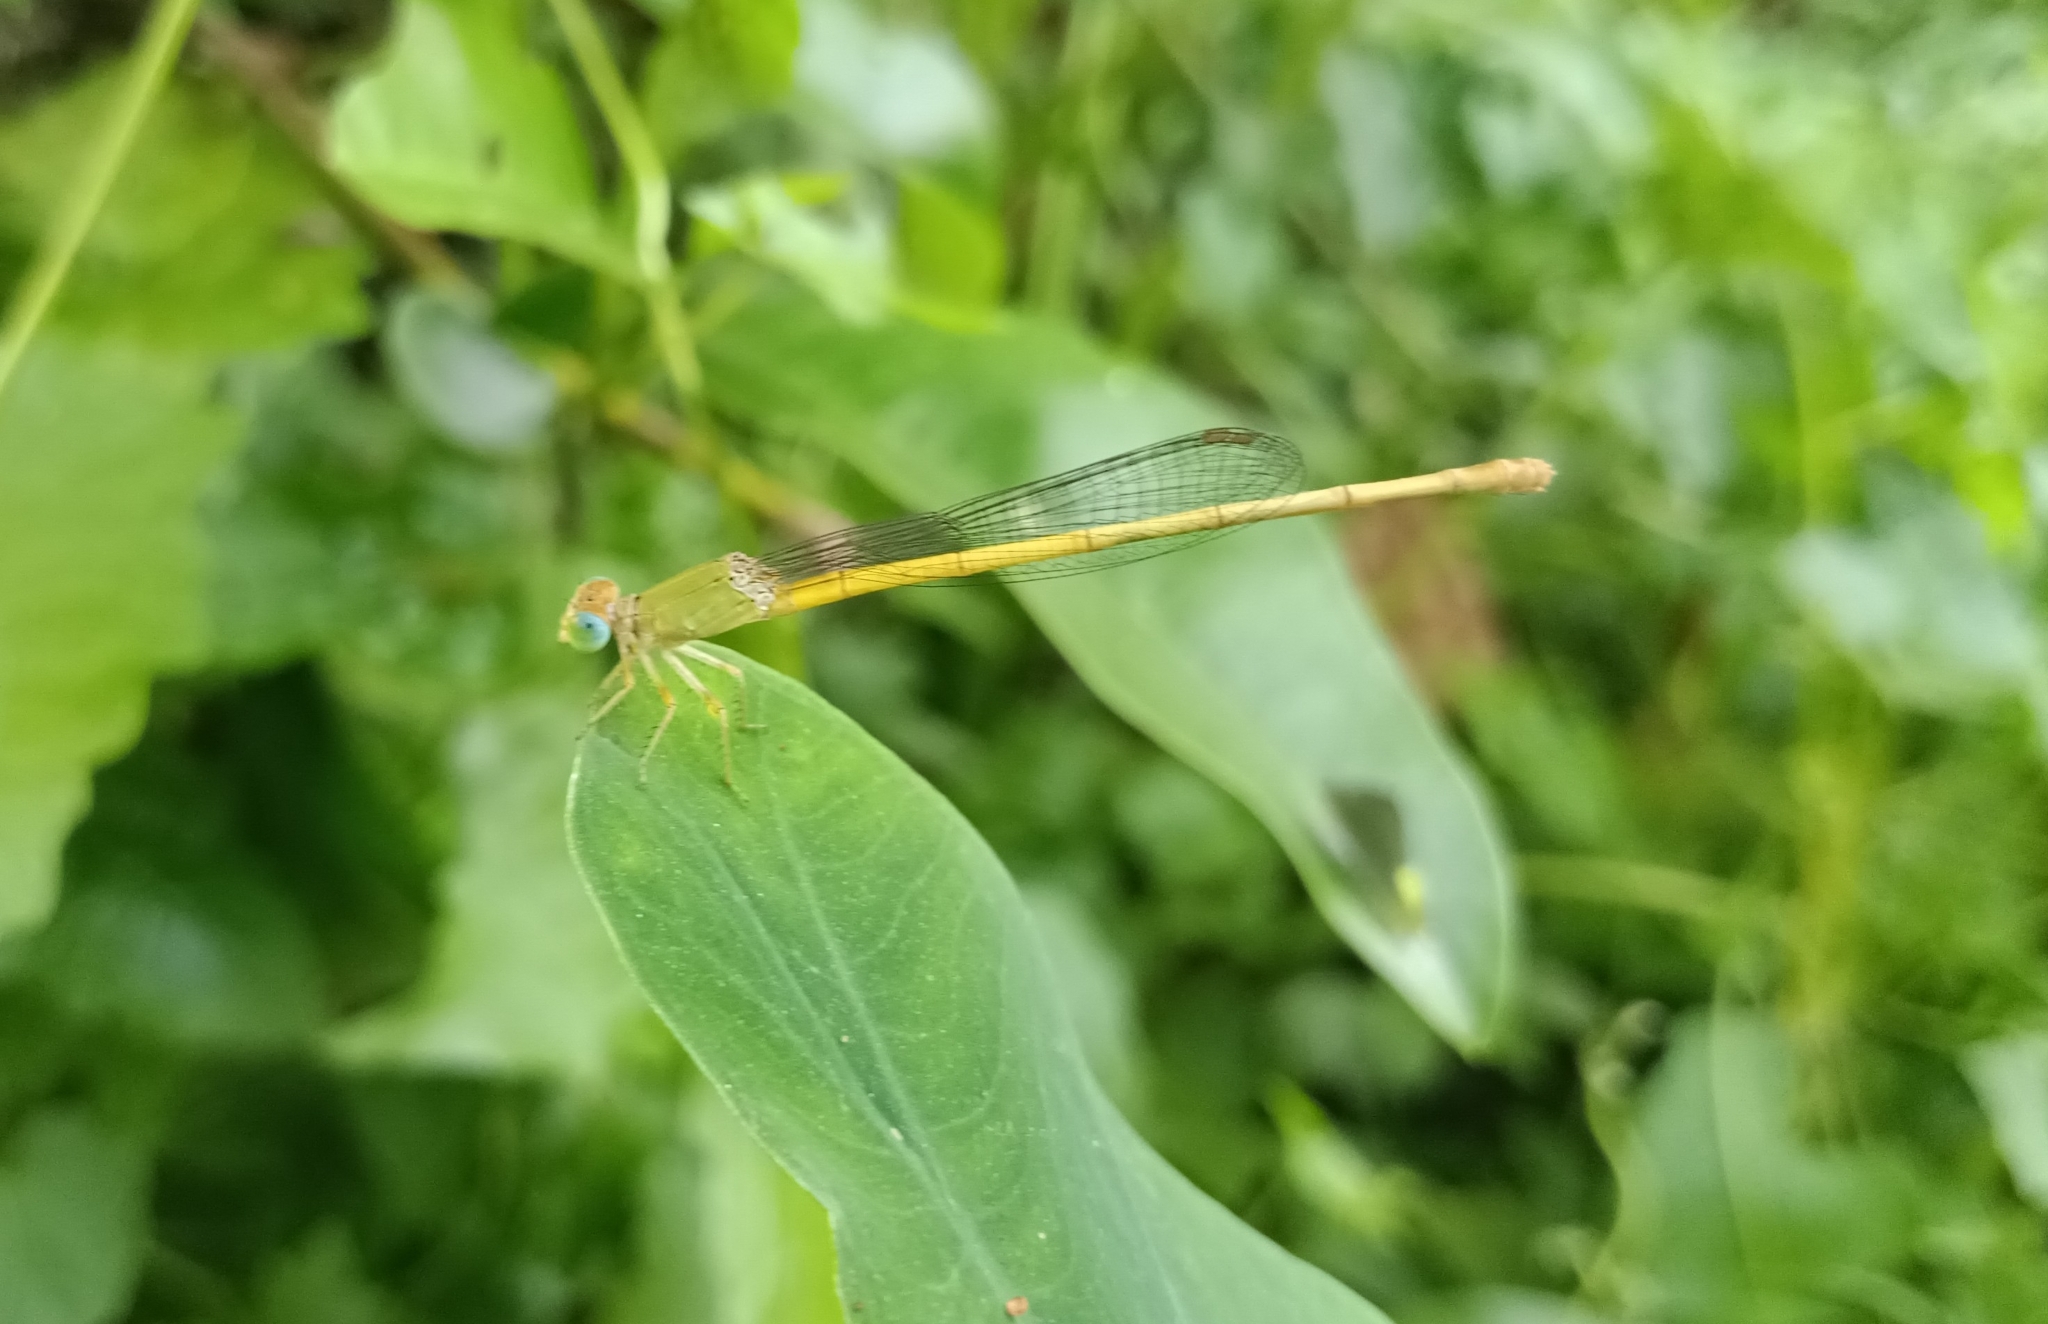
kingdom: Animalia
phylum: Arthropoda
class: Insecta
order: Odonata
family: Coenagrionidae
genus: Ceriagrion
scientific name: Ceriagrion coromandelianum
